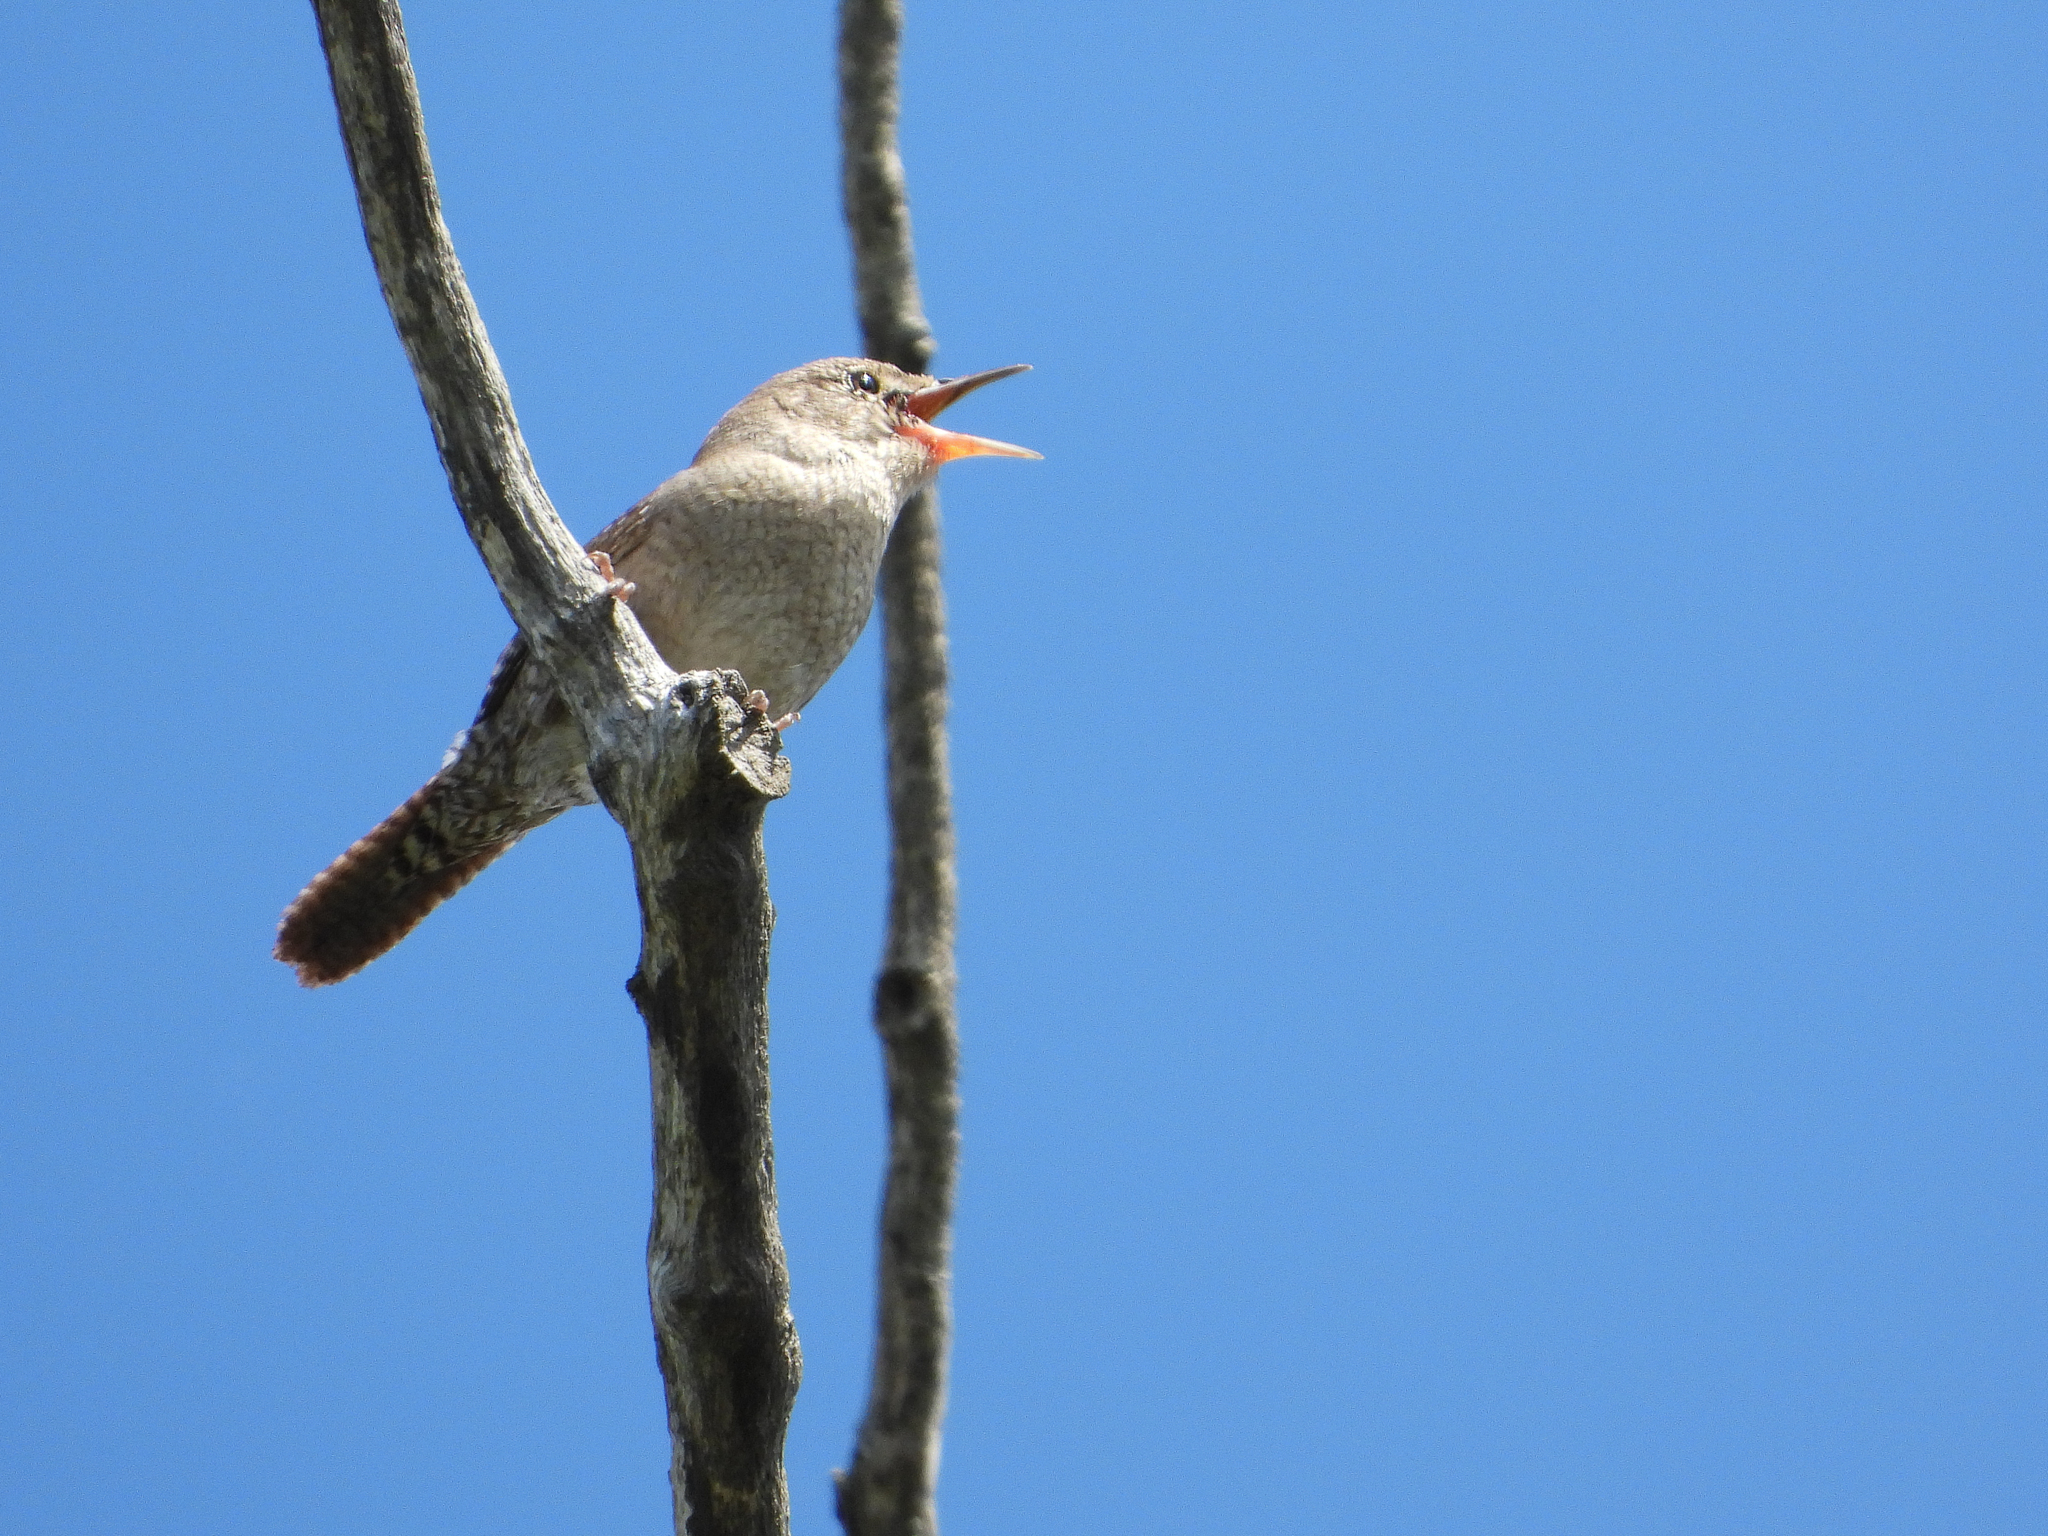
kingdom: Animalia
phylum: Chordata
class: Aves
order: Passeriformes
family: Troglodytidae
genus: Troglodytes
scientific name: Troglodytes aedon
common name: House wren
